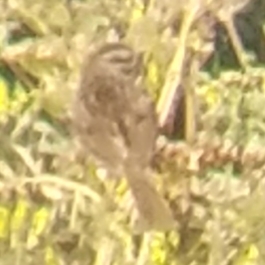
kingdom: Animalia
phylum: Chordata
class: Aves
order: Passeriformes
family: Passerellidae
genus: Melospiza
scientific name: Melospiza melodia
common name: Song sparrow
